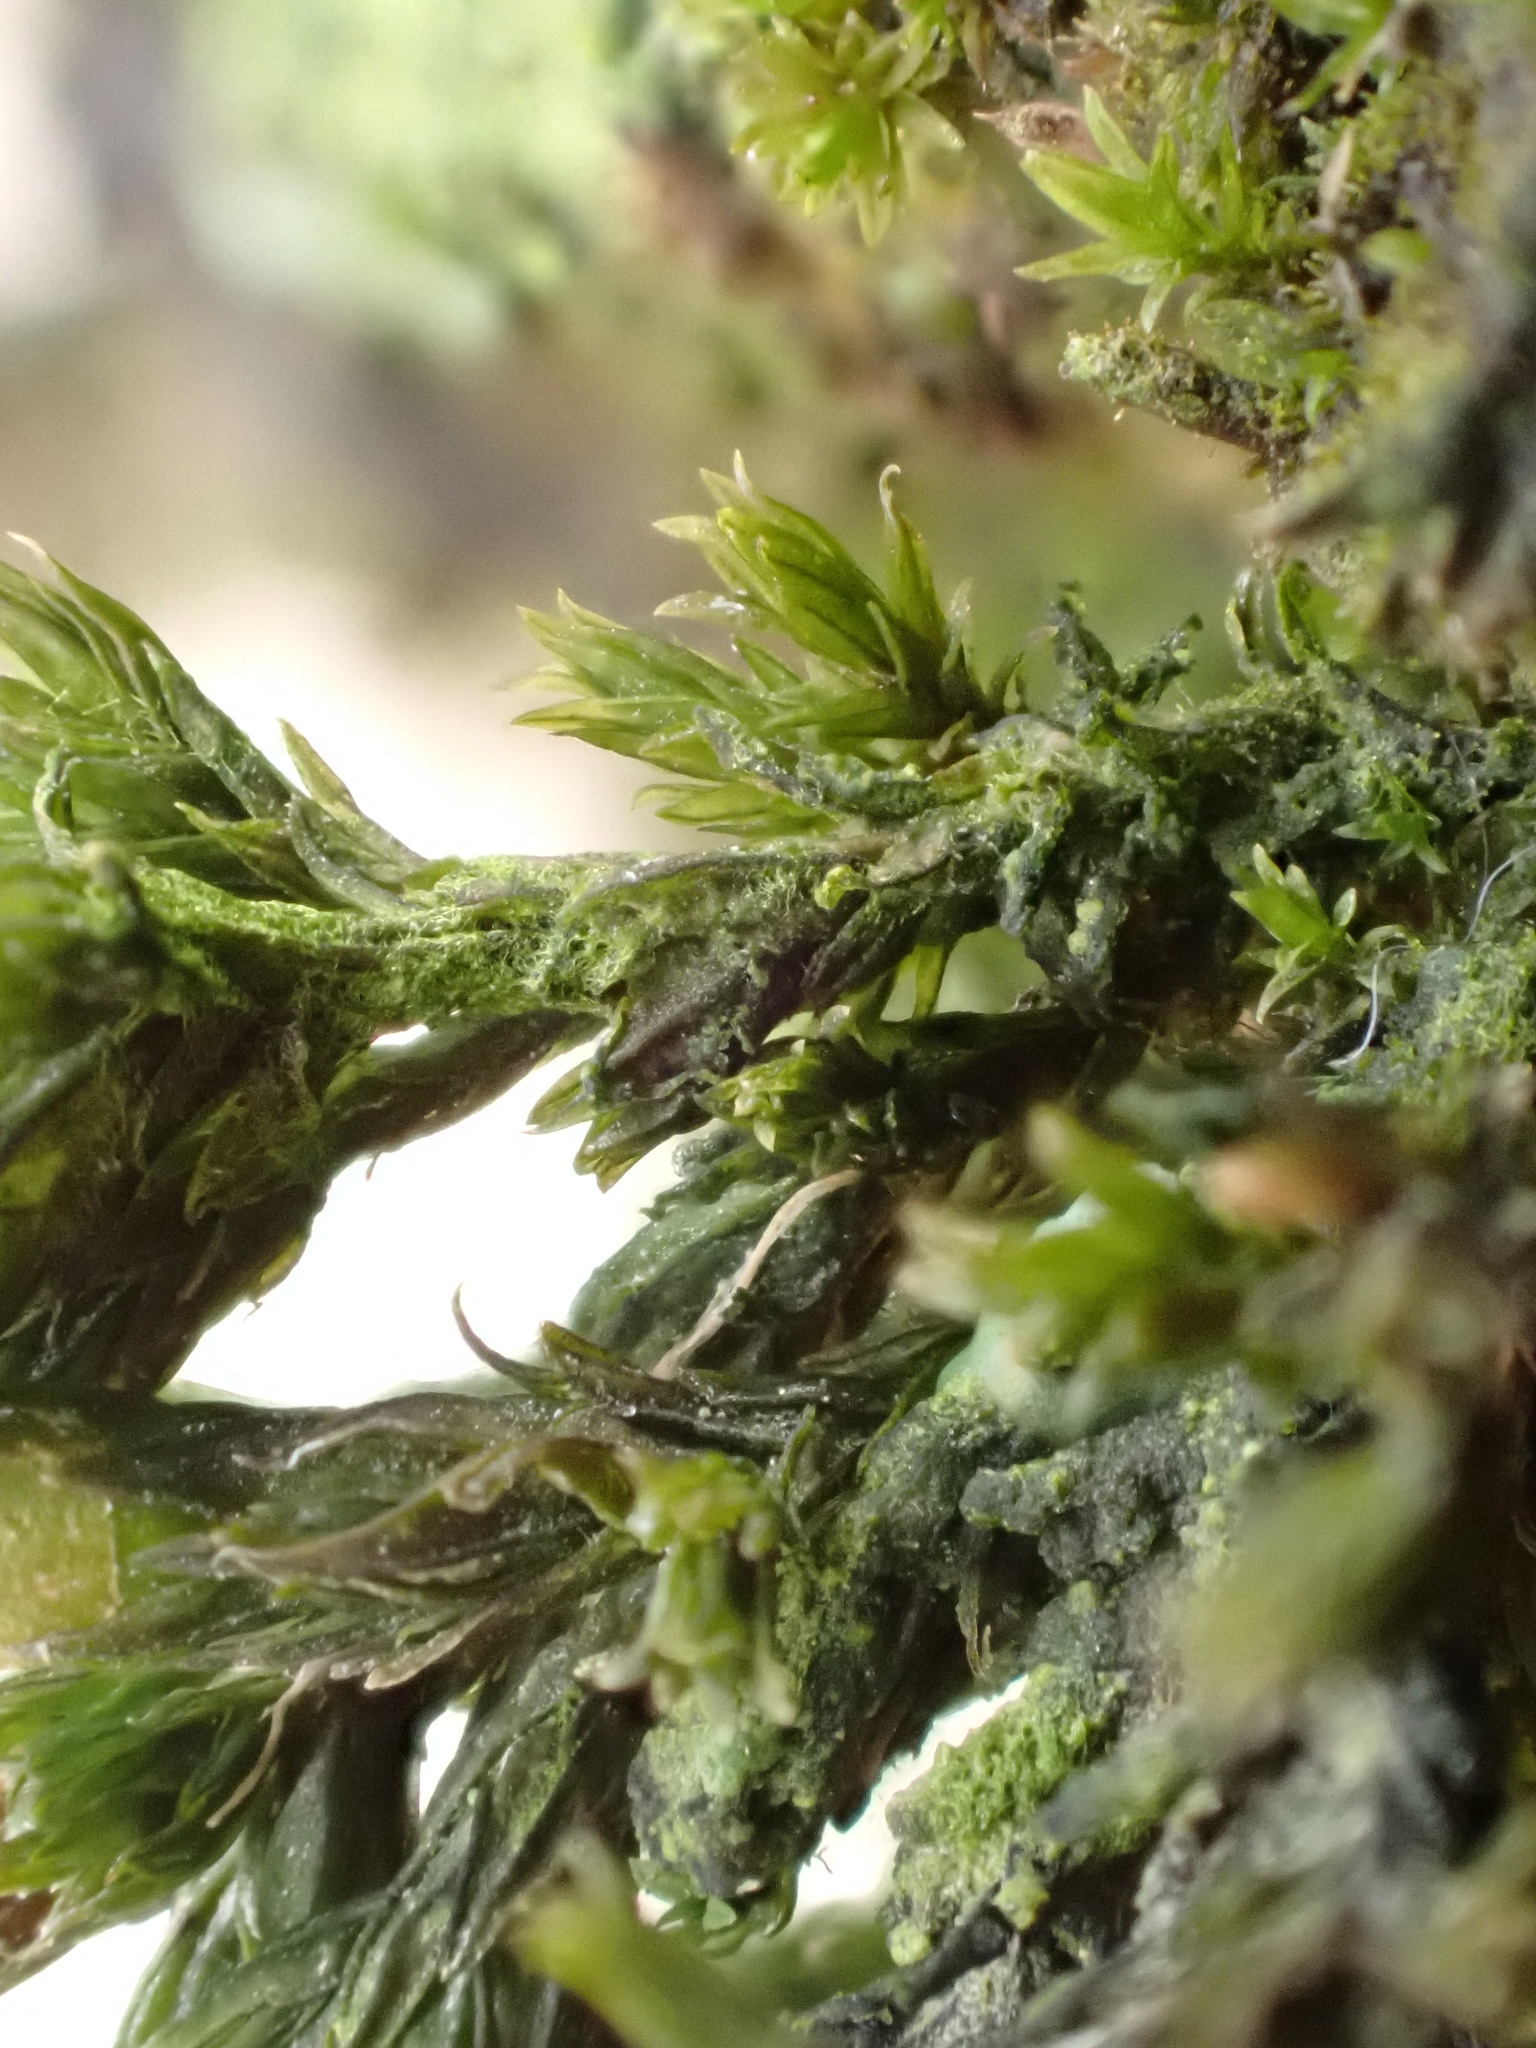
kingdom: Plantae
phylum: Bryophyta
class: Bryopsida
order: Orthotrichales
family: Orthotrichaceae
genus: Orthotrichum
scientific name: Orthotrichum cupulatum
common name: Hooded bristle-moss
